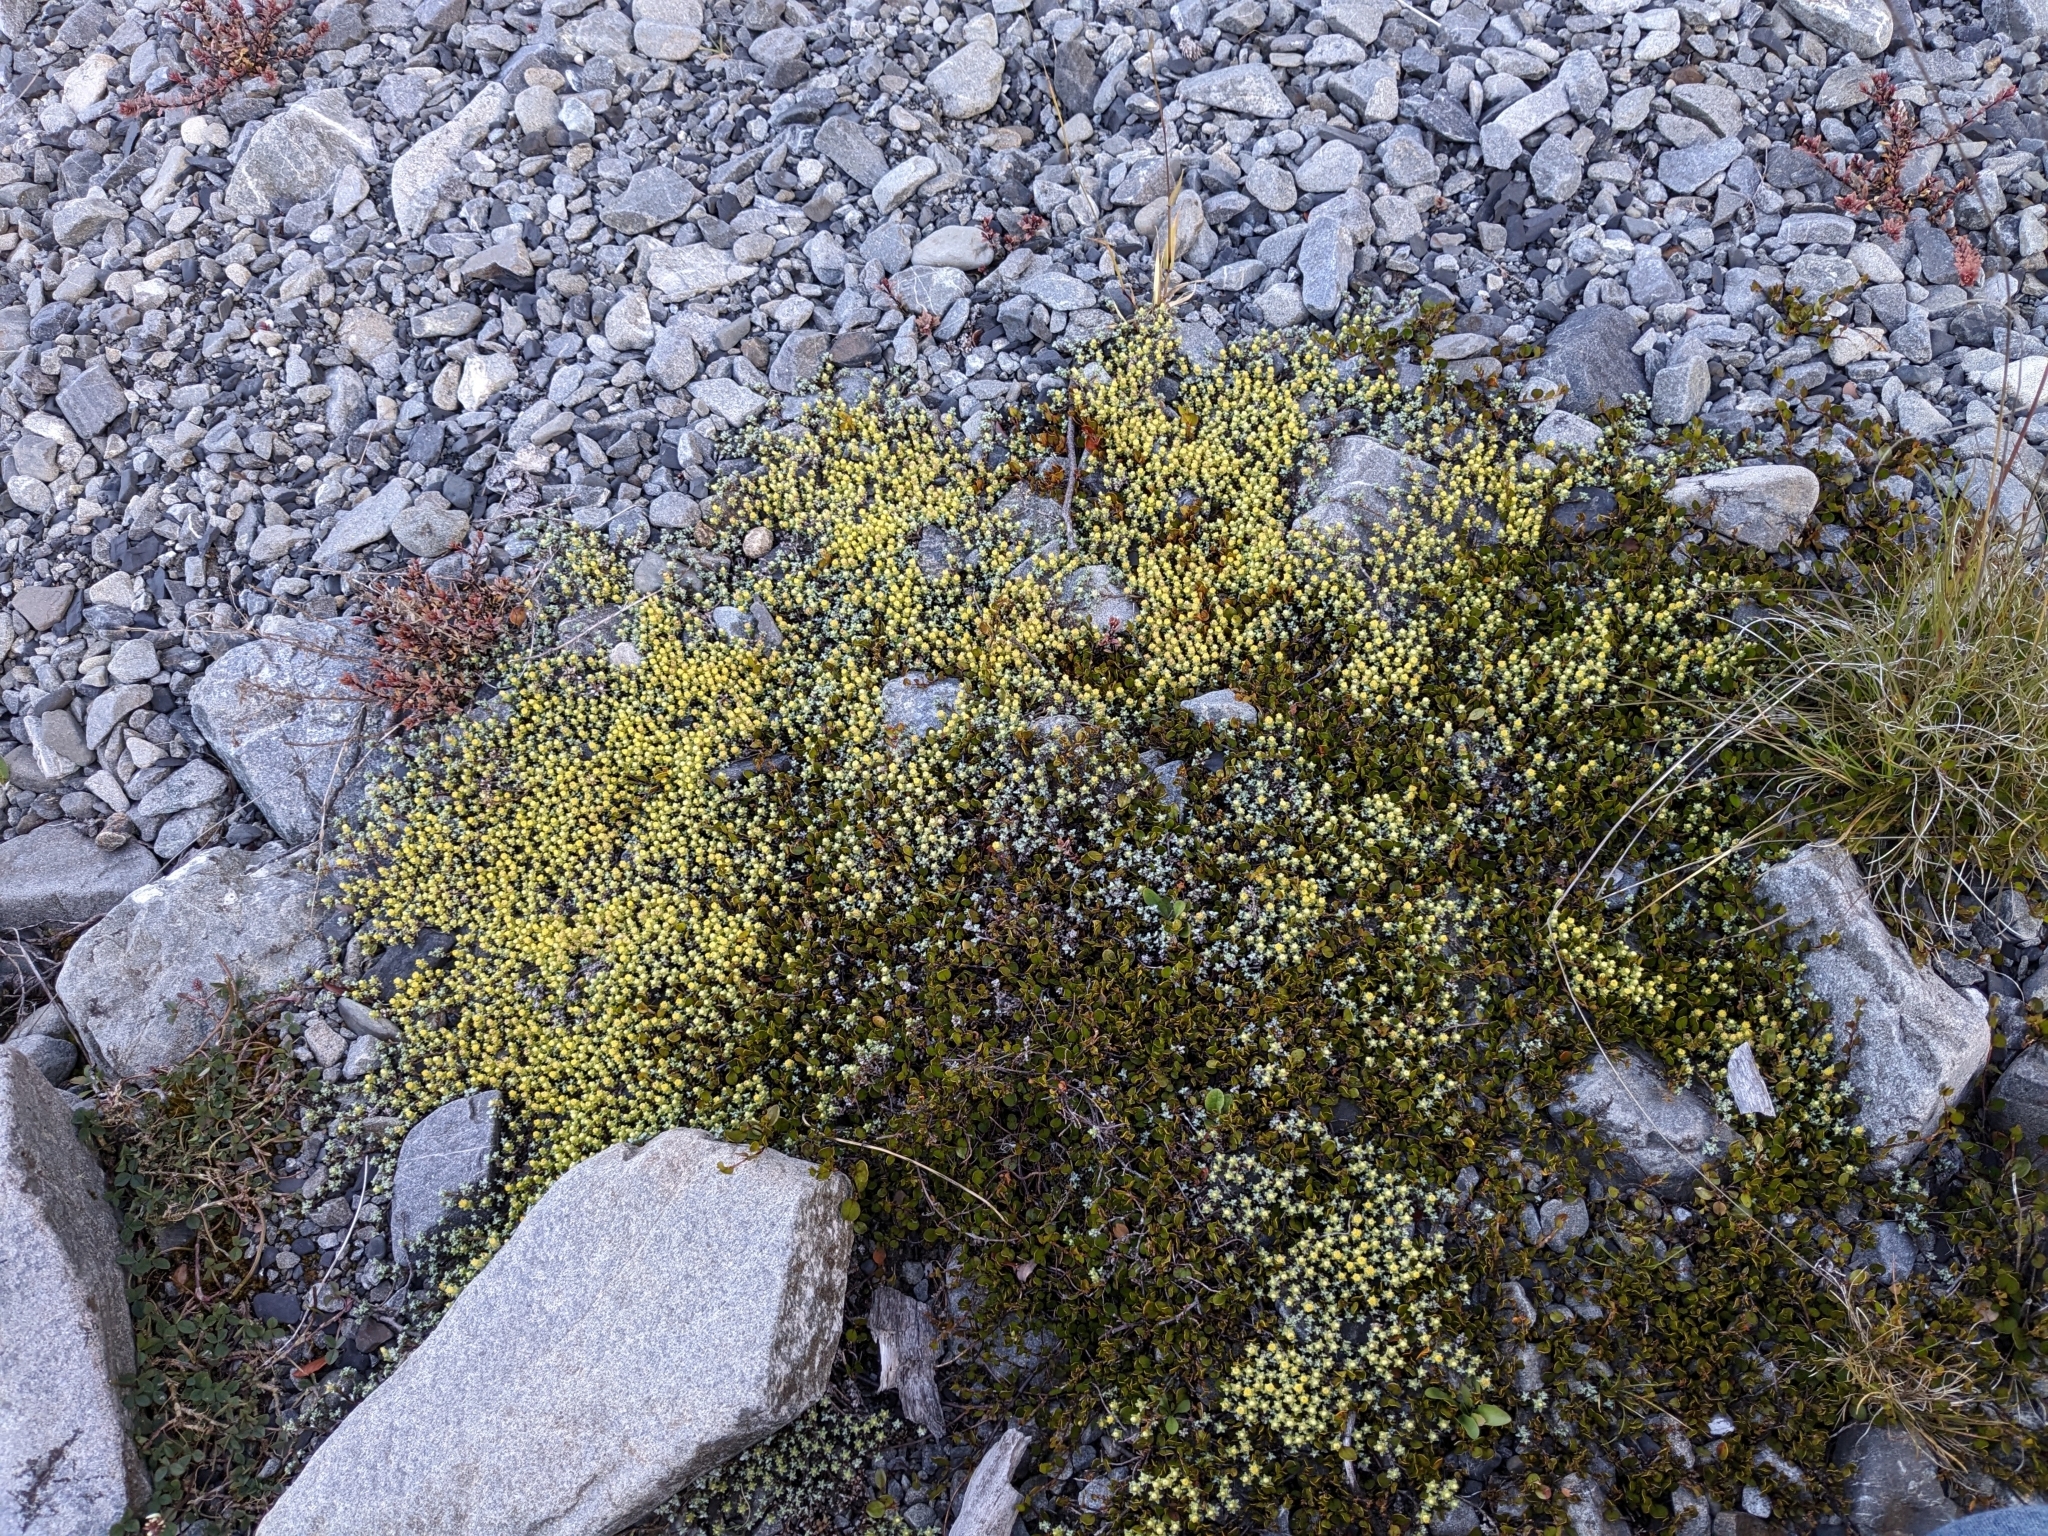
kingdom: Plantae
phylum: Tracheophyta
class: Magnoliopsida
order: Asterales
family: Asteraceae
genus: Raoulia
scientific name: Raoulia hookeri
